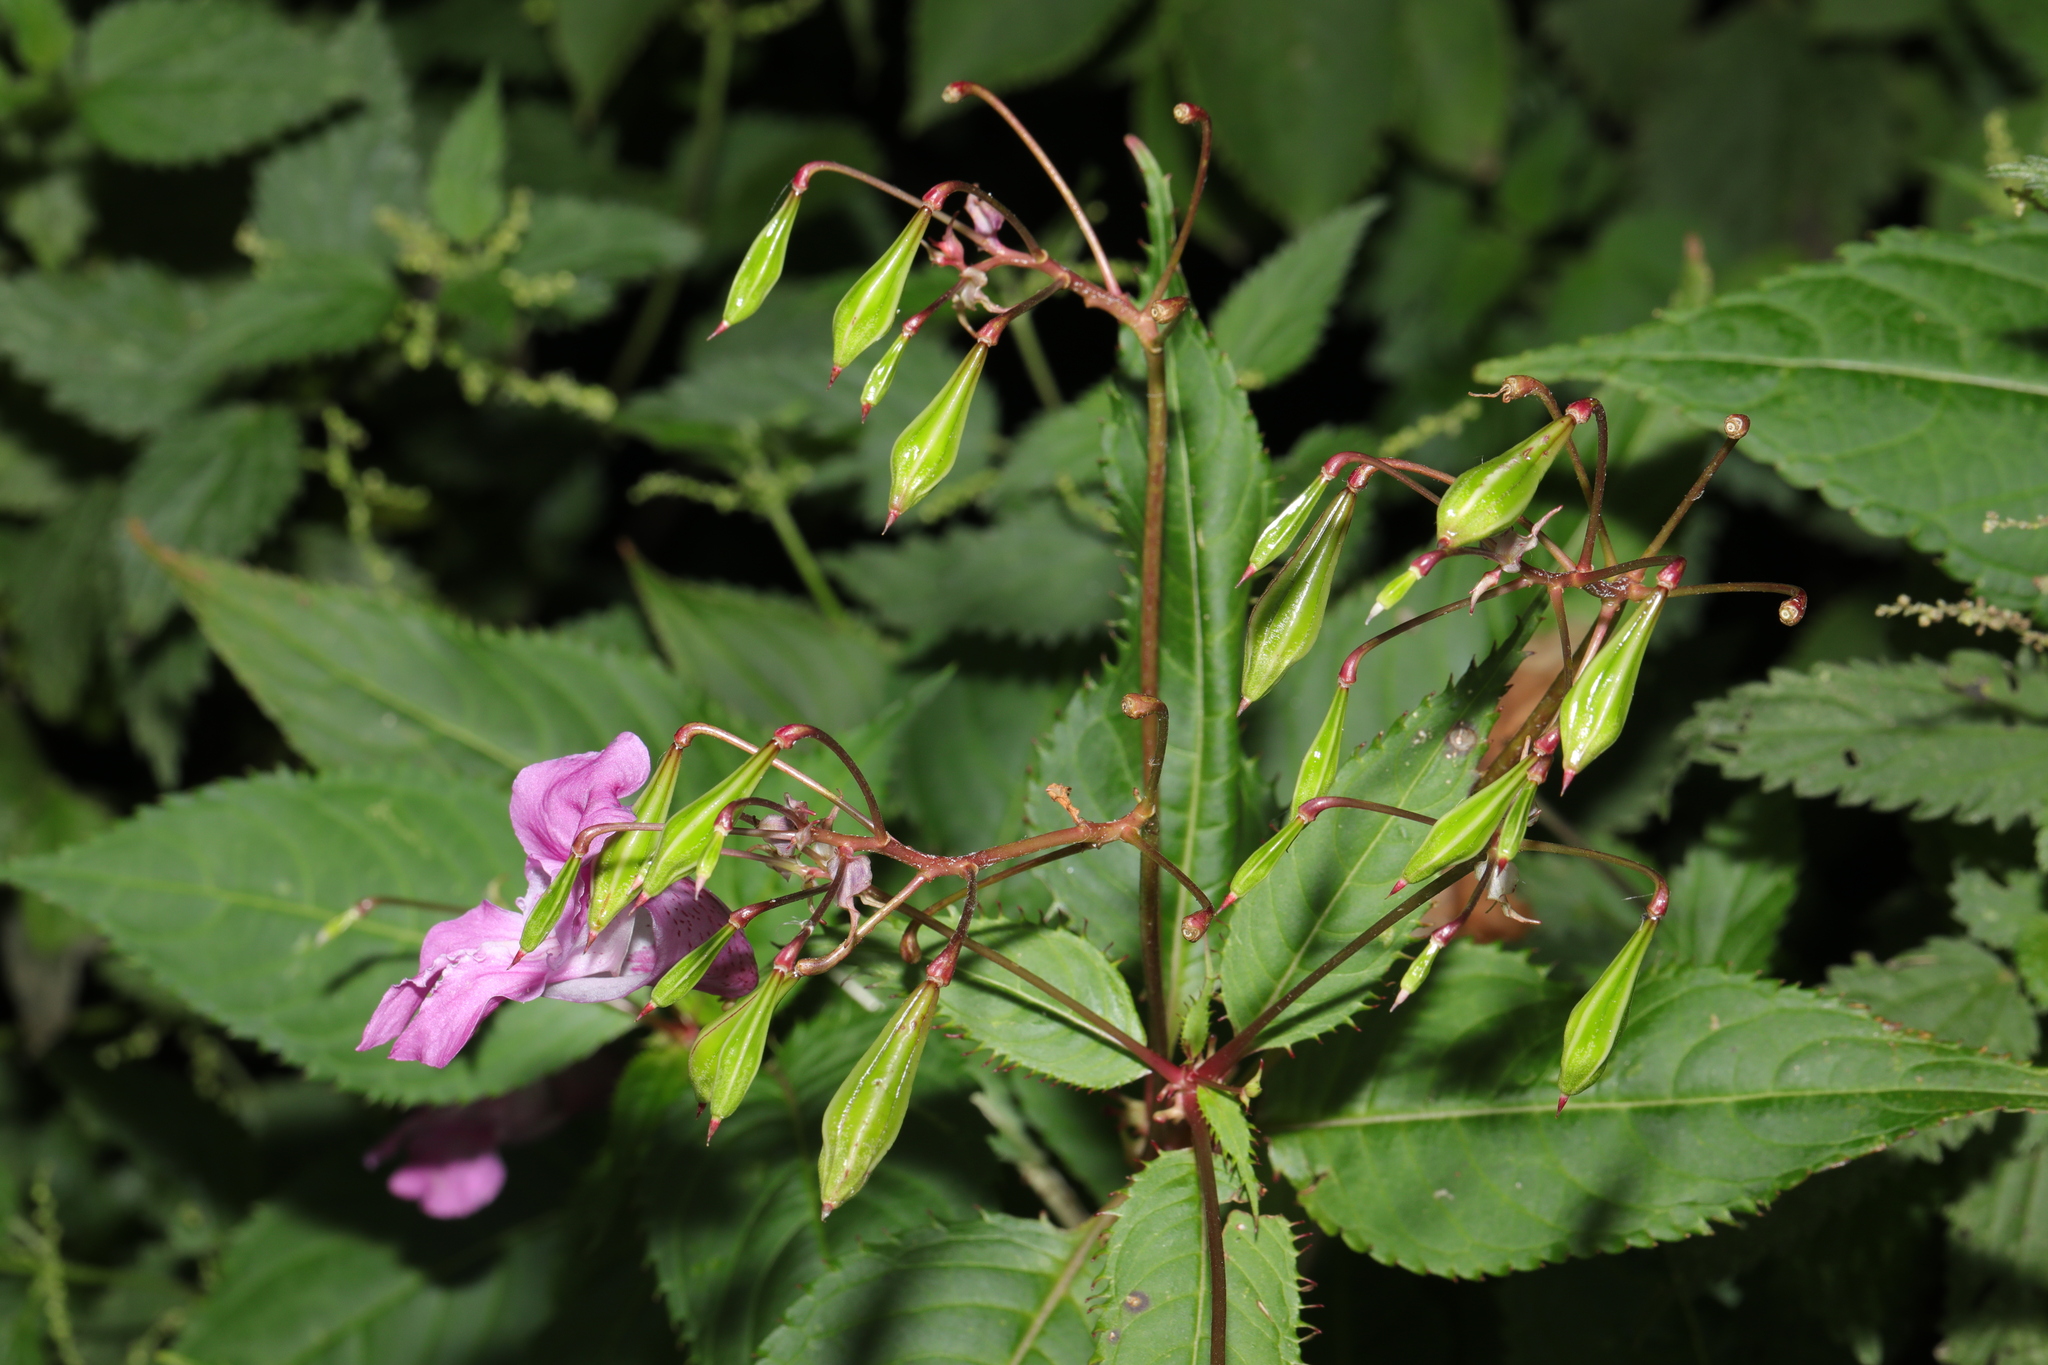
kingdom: Plantae
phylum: Tracheophyta
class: Magnoliopsida
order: Ericales
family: Balsaminaceae
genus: Impatiens
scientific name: Impatiens glandulifera
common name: Himalayan balsam
